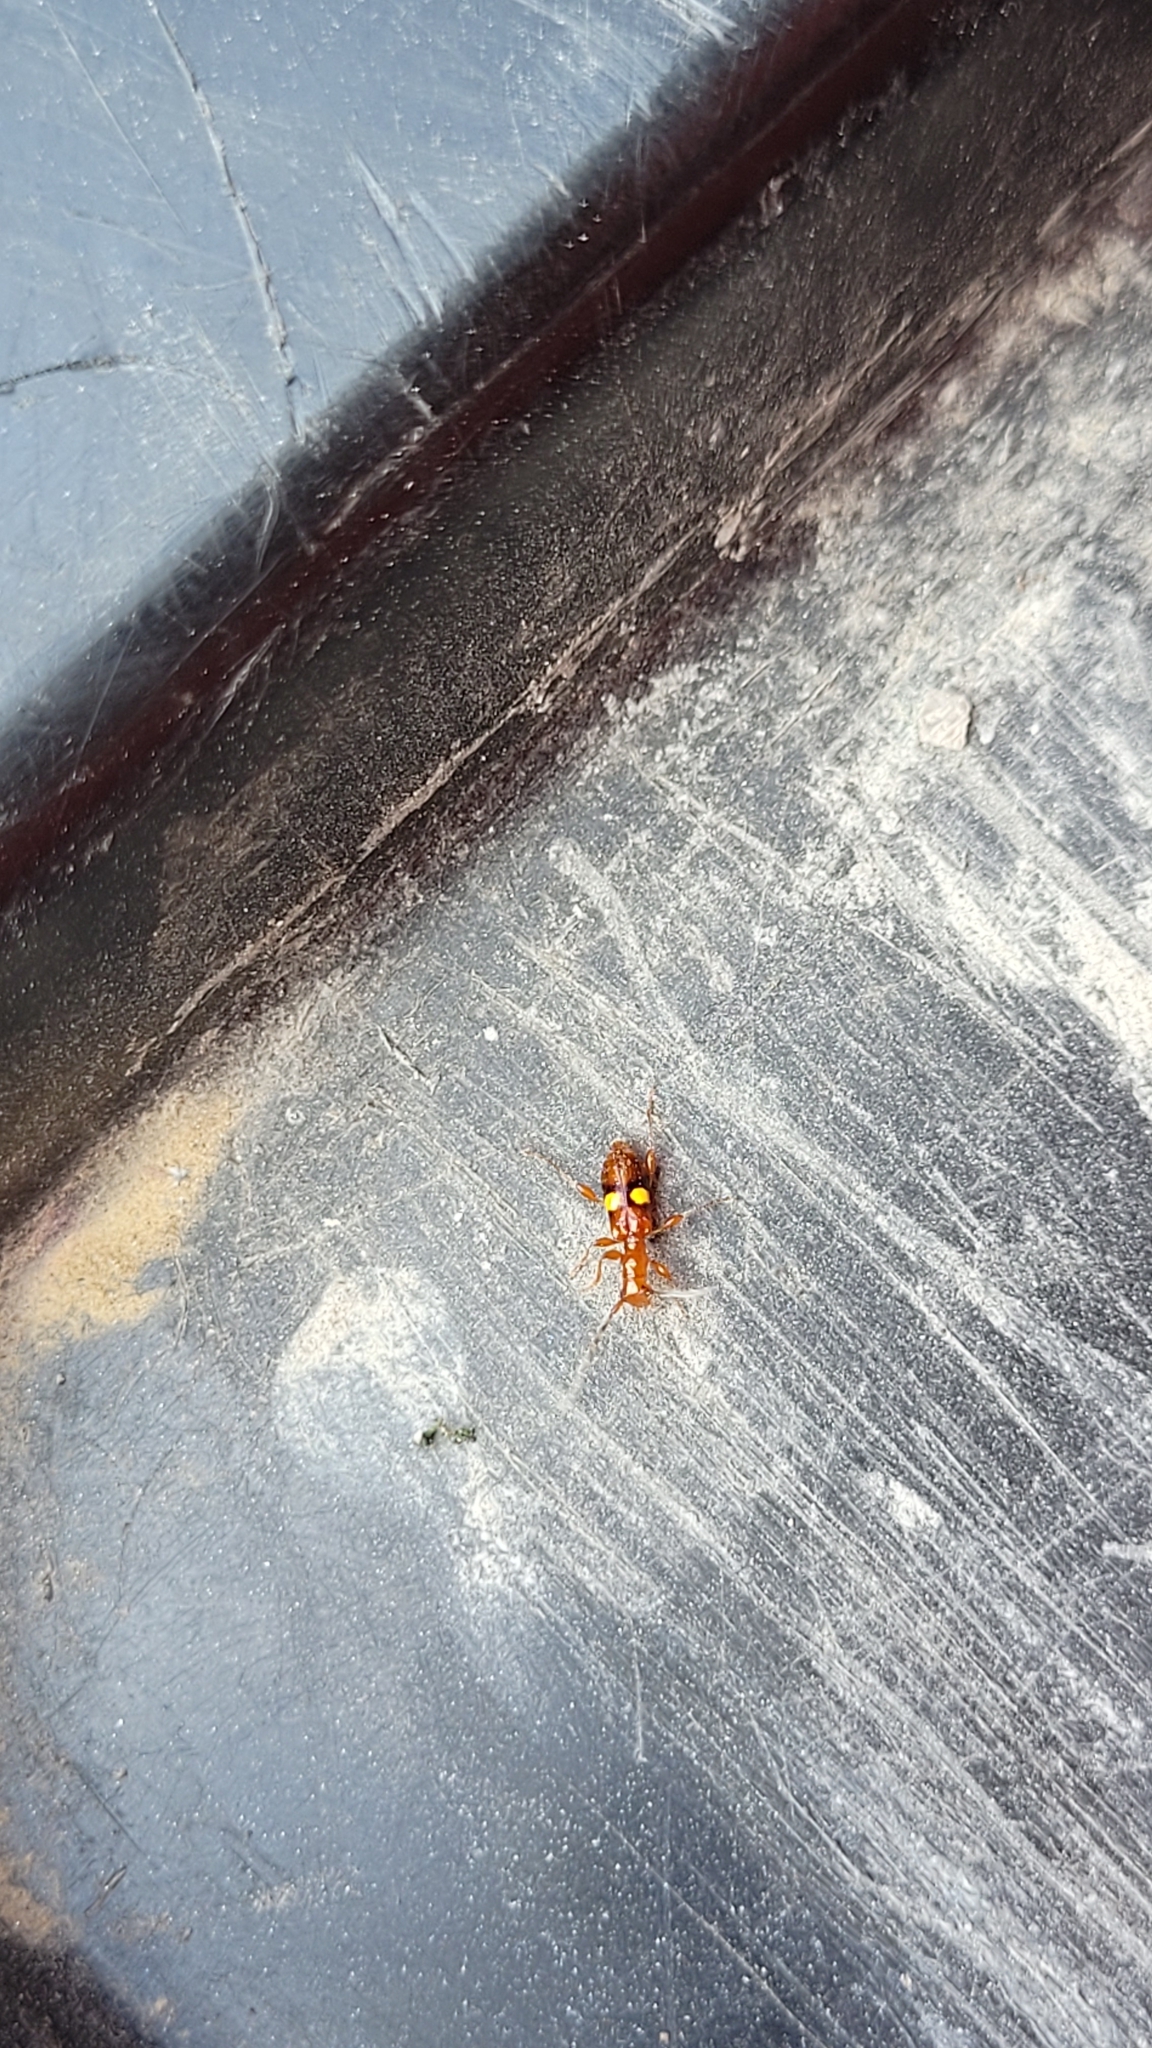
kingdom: Animalia
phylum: Arthropoda
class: Insecta
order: Coleoptera
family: Cerambycidae
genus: Zorion
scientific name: Zorion australe
